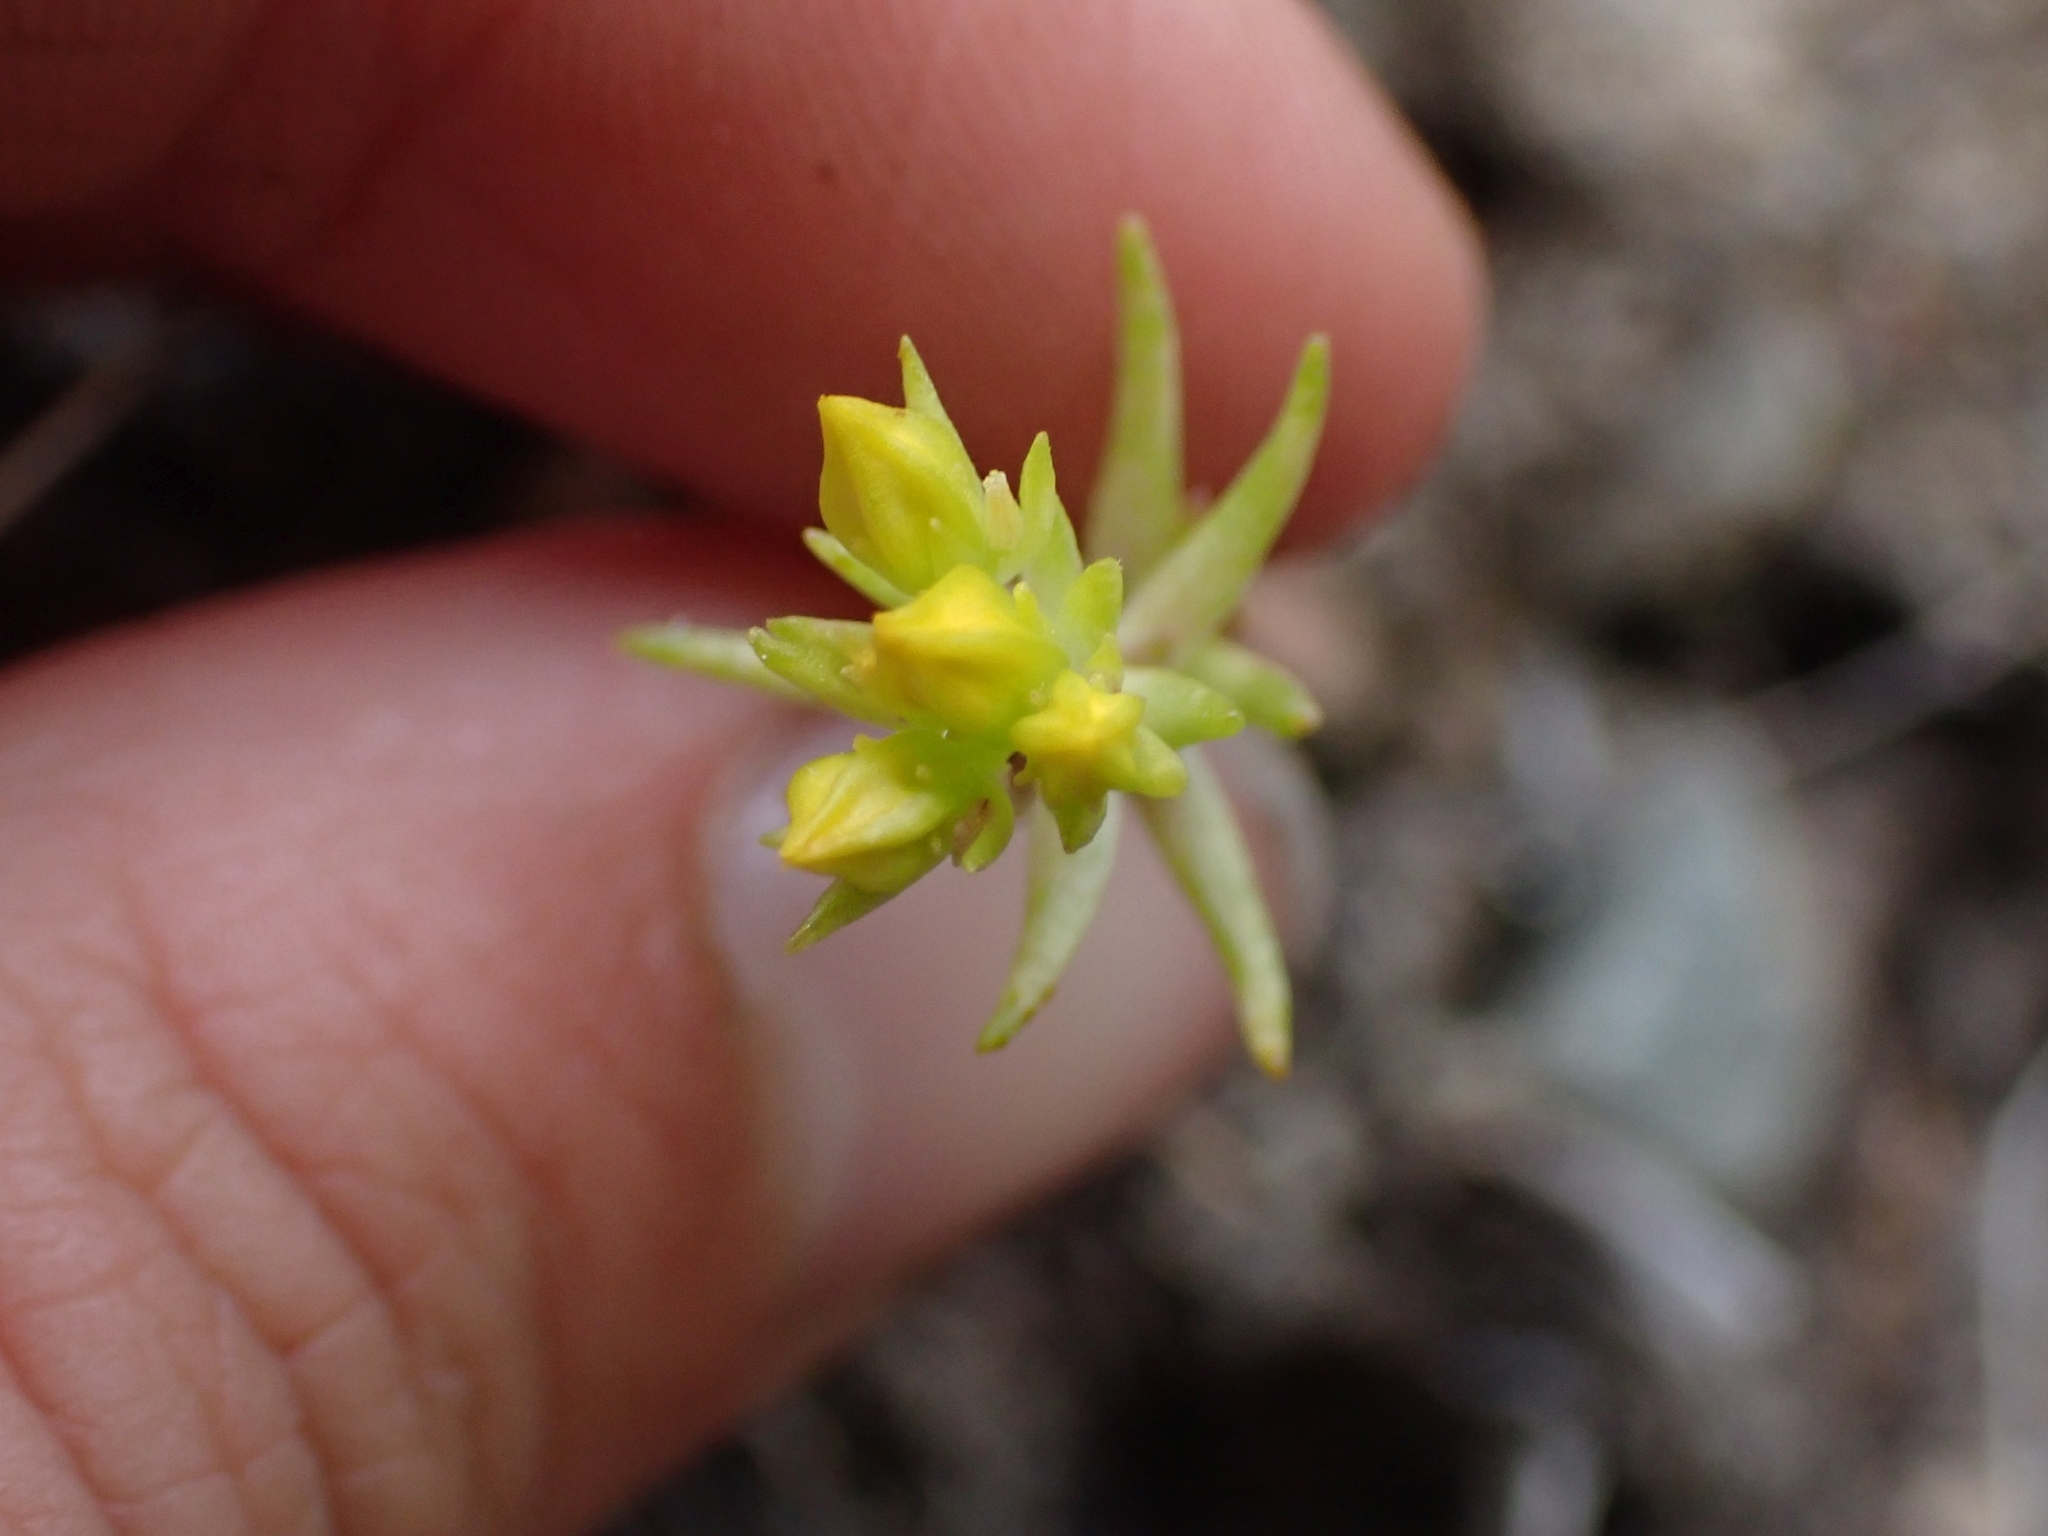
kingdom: Plantae
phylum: Tracheophyta
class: Magnoliopsida
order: Saxifragales
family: Crassulaceae
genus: Sedum
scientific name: Sedum stenopetalum
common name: Narrow-petaled stonecrop
